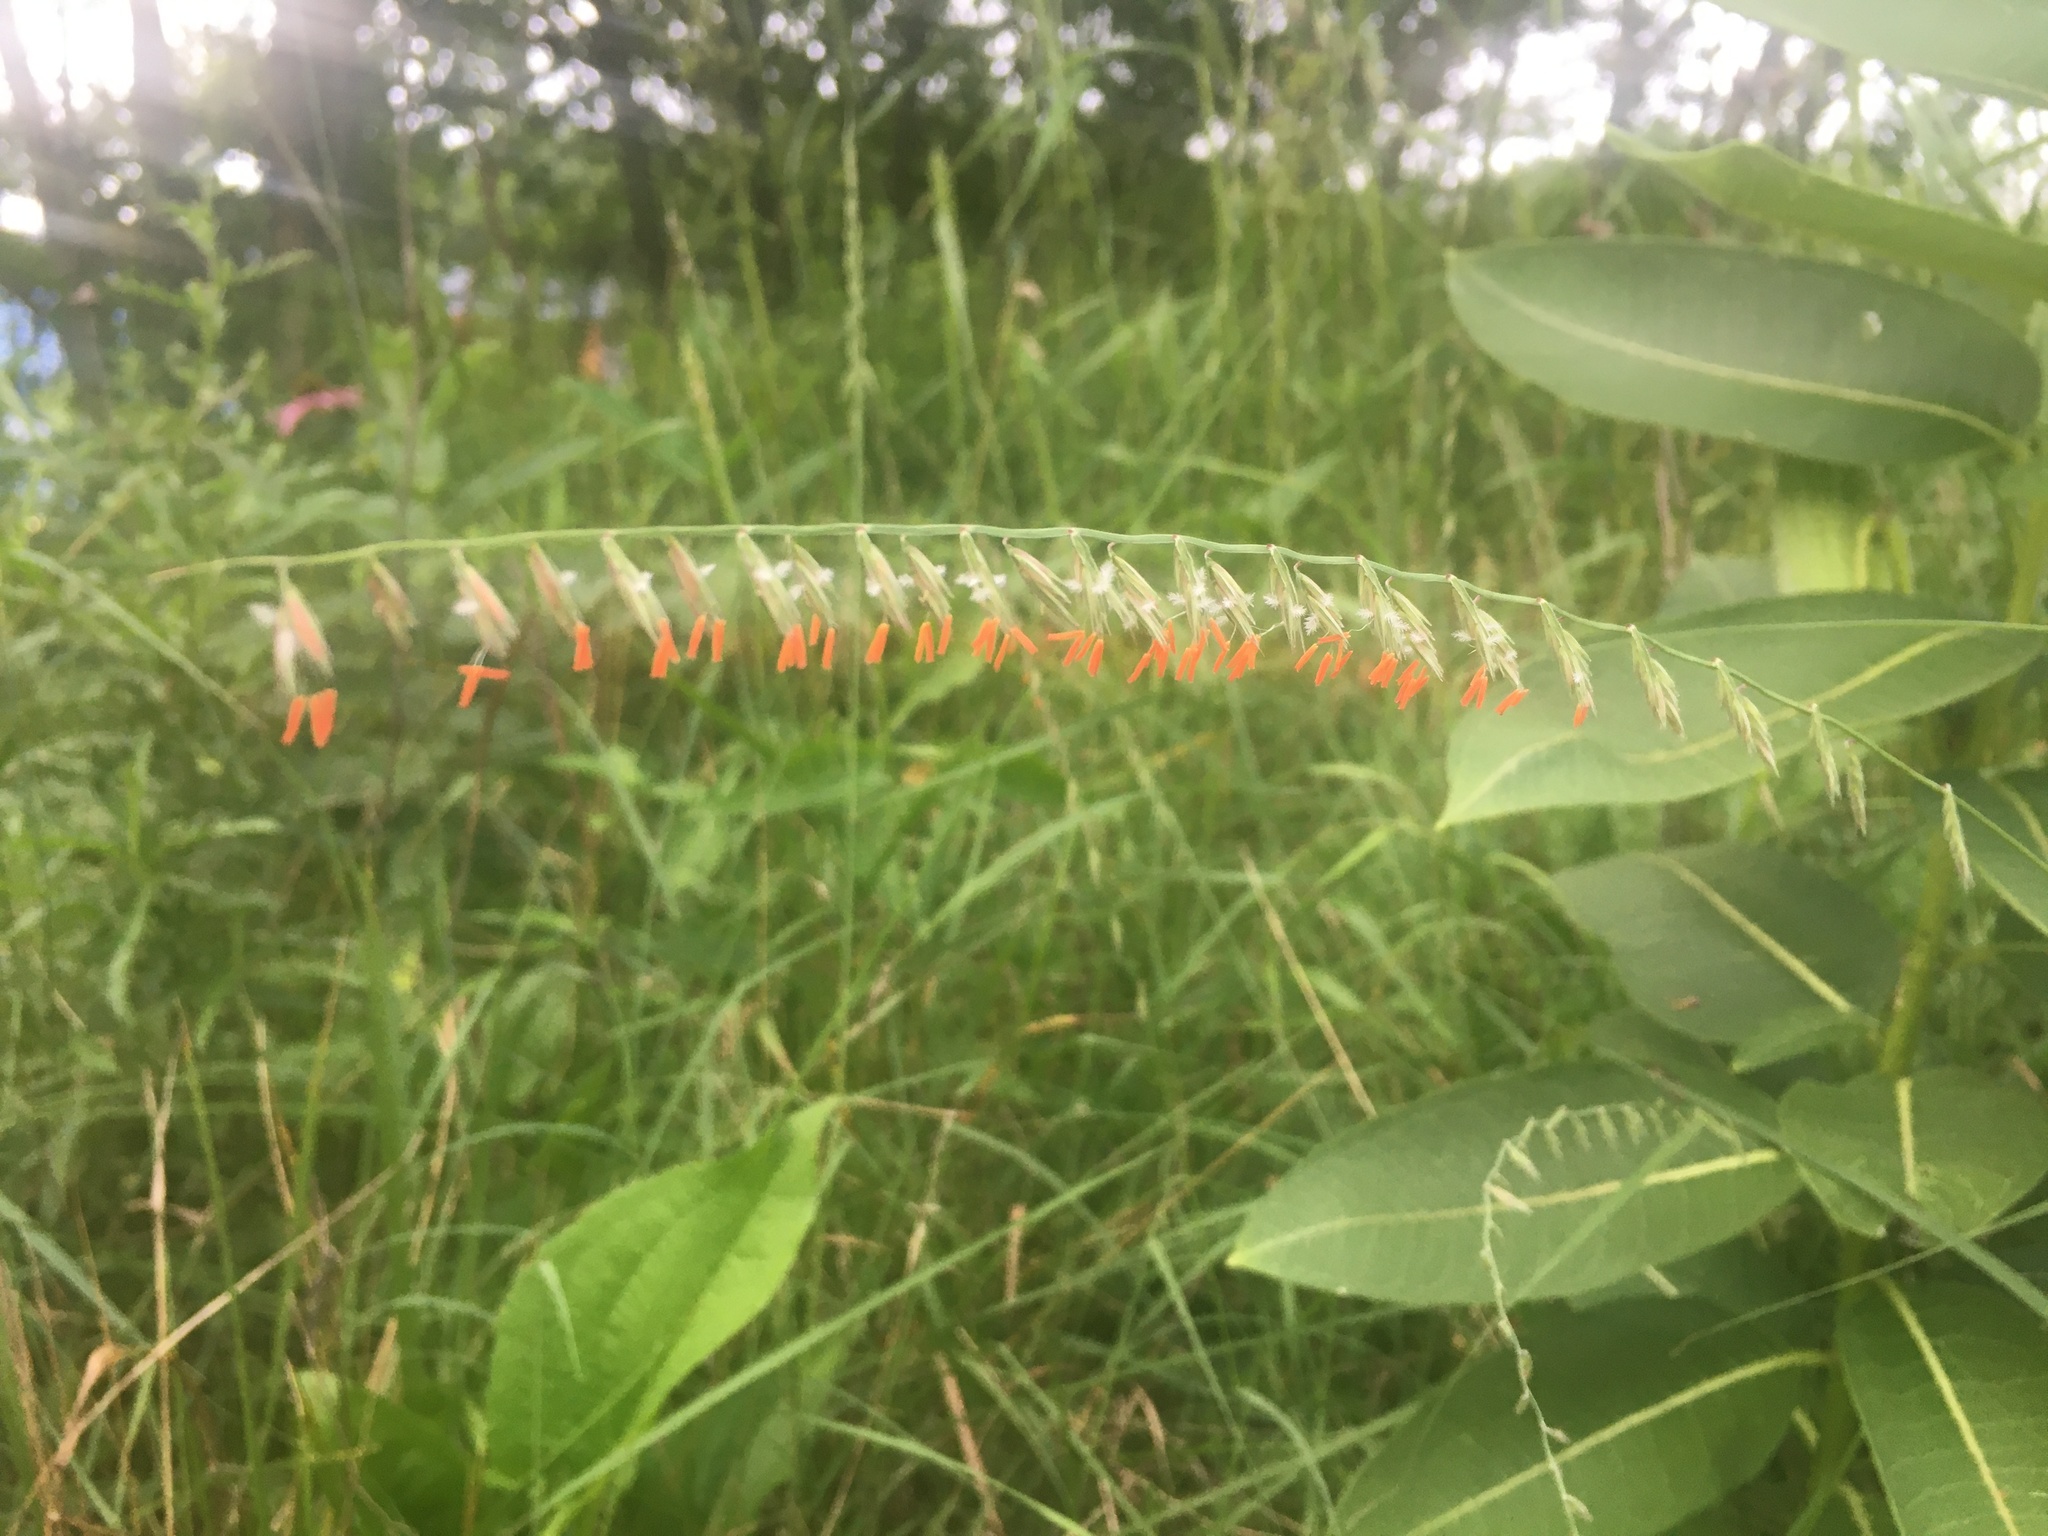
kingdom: Plantae
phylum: Tracheophyta
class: Liliopsida
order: Poales
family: Poaceae
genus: Bouteloua
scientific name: Bouteloua curtipendula
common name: Side-oats grama
